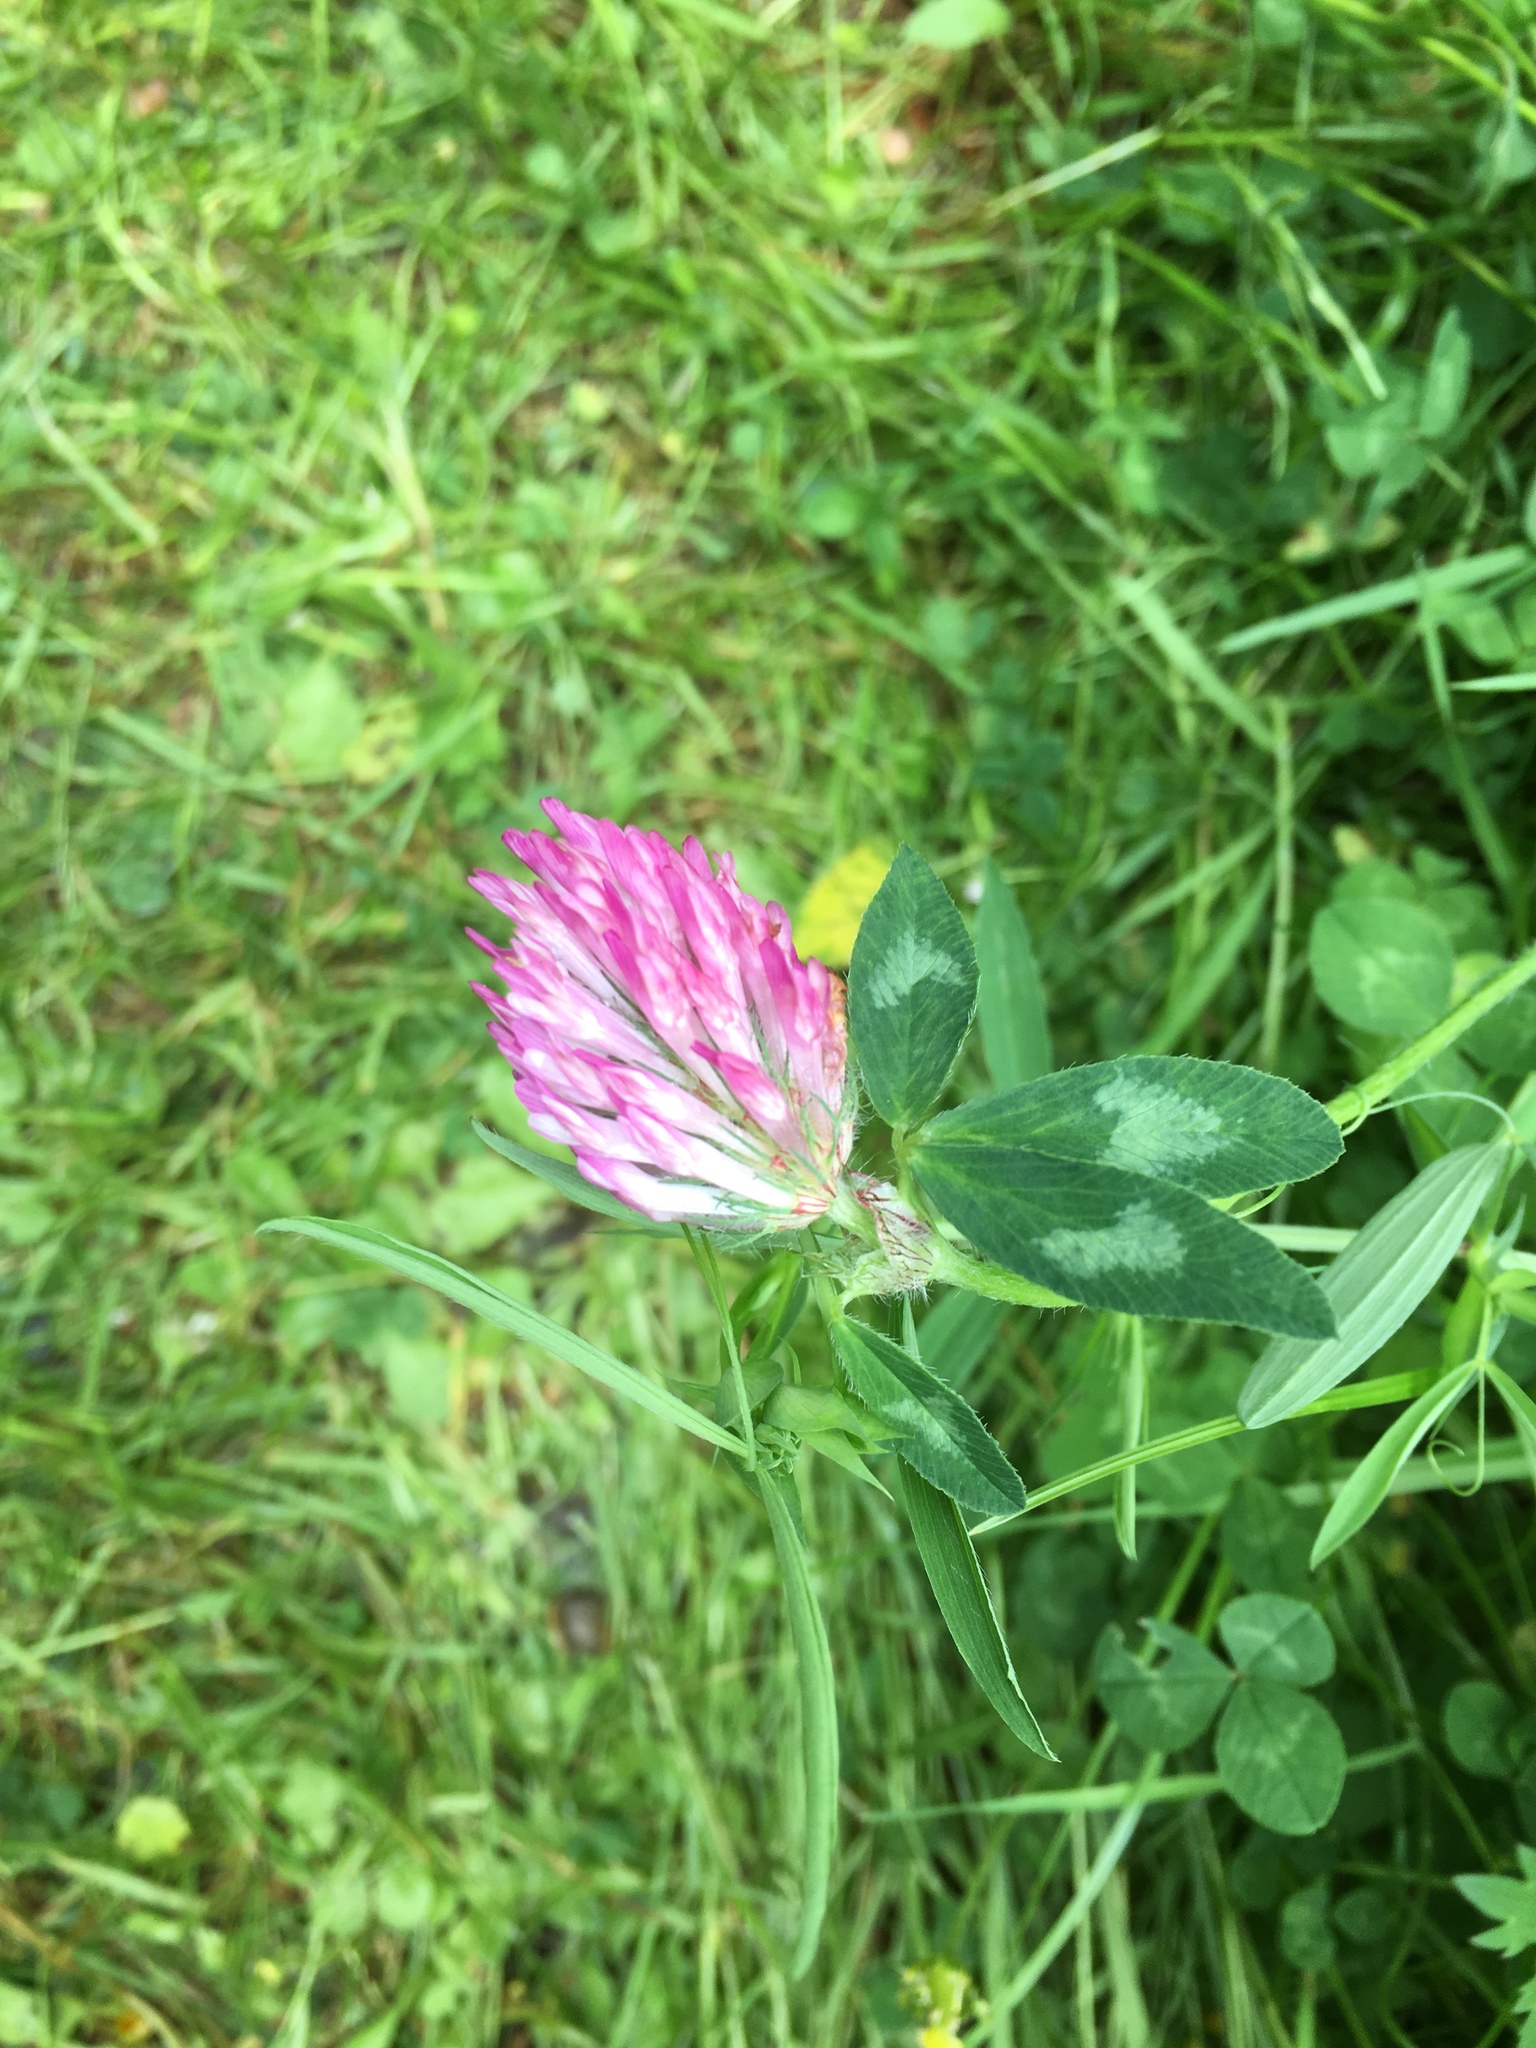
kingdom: Plantae
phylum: Tracheophyta
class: Magnoliopsida
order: Fabales
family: Fabaceae
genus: Trifolium
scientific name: Trifolium pratense
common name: Red clover
